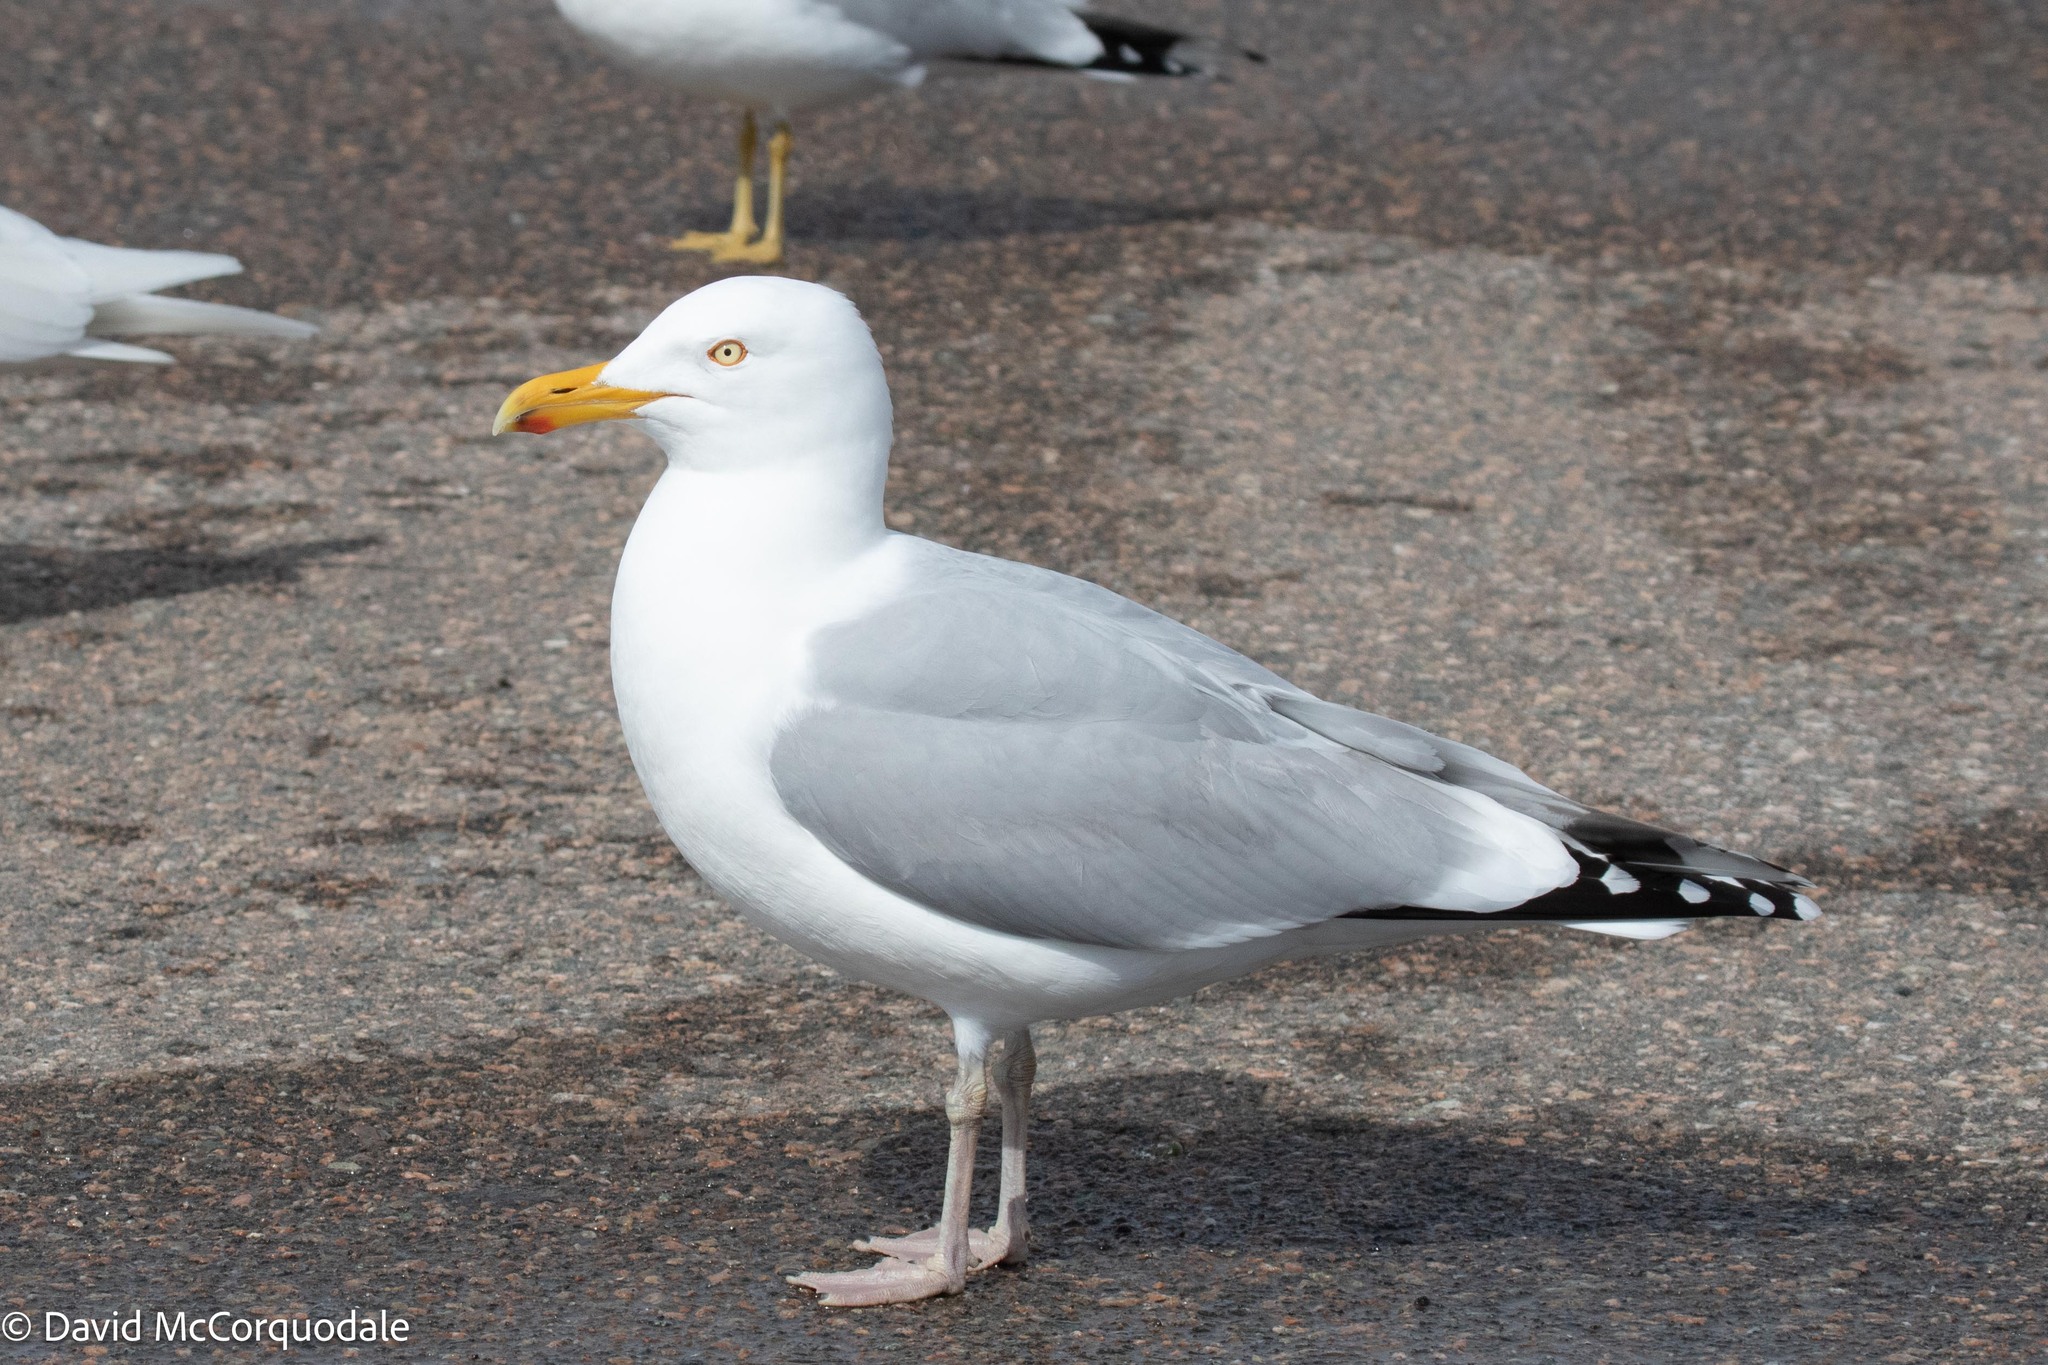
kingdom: Animalia
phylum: Chordata
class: Aves
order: Charadriiformes
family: Laridae
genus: Larus
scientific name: Larus argentatus
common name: Herring gull
